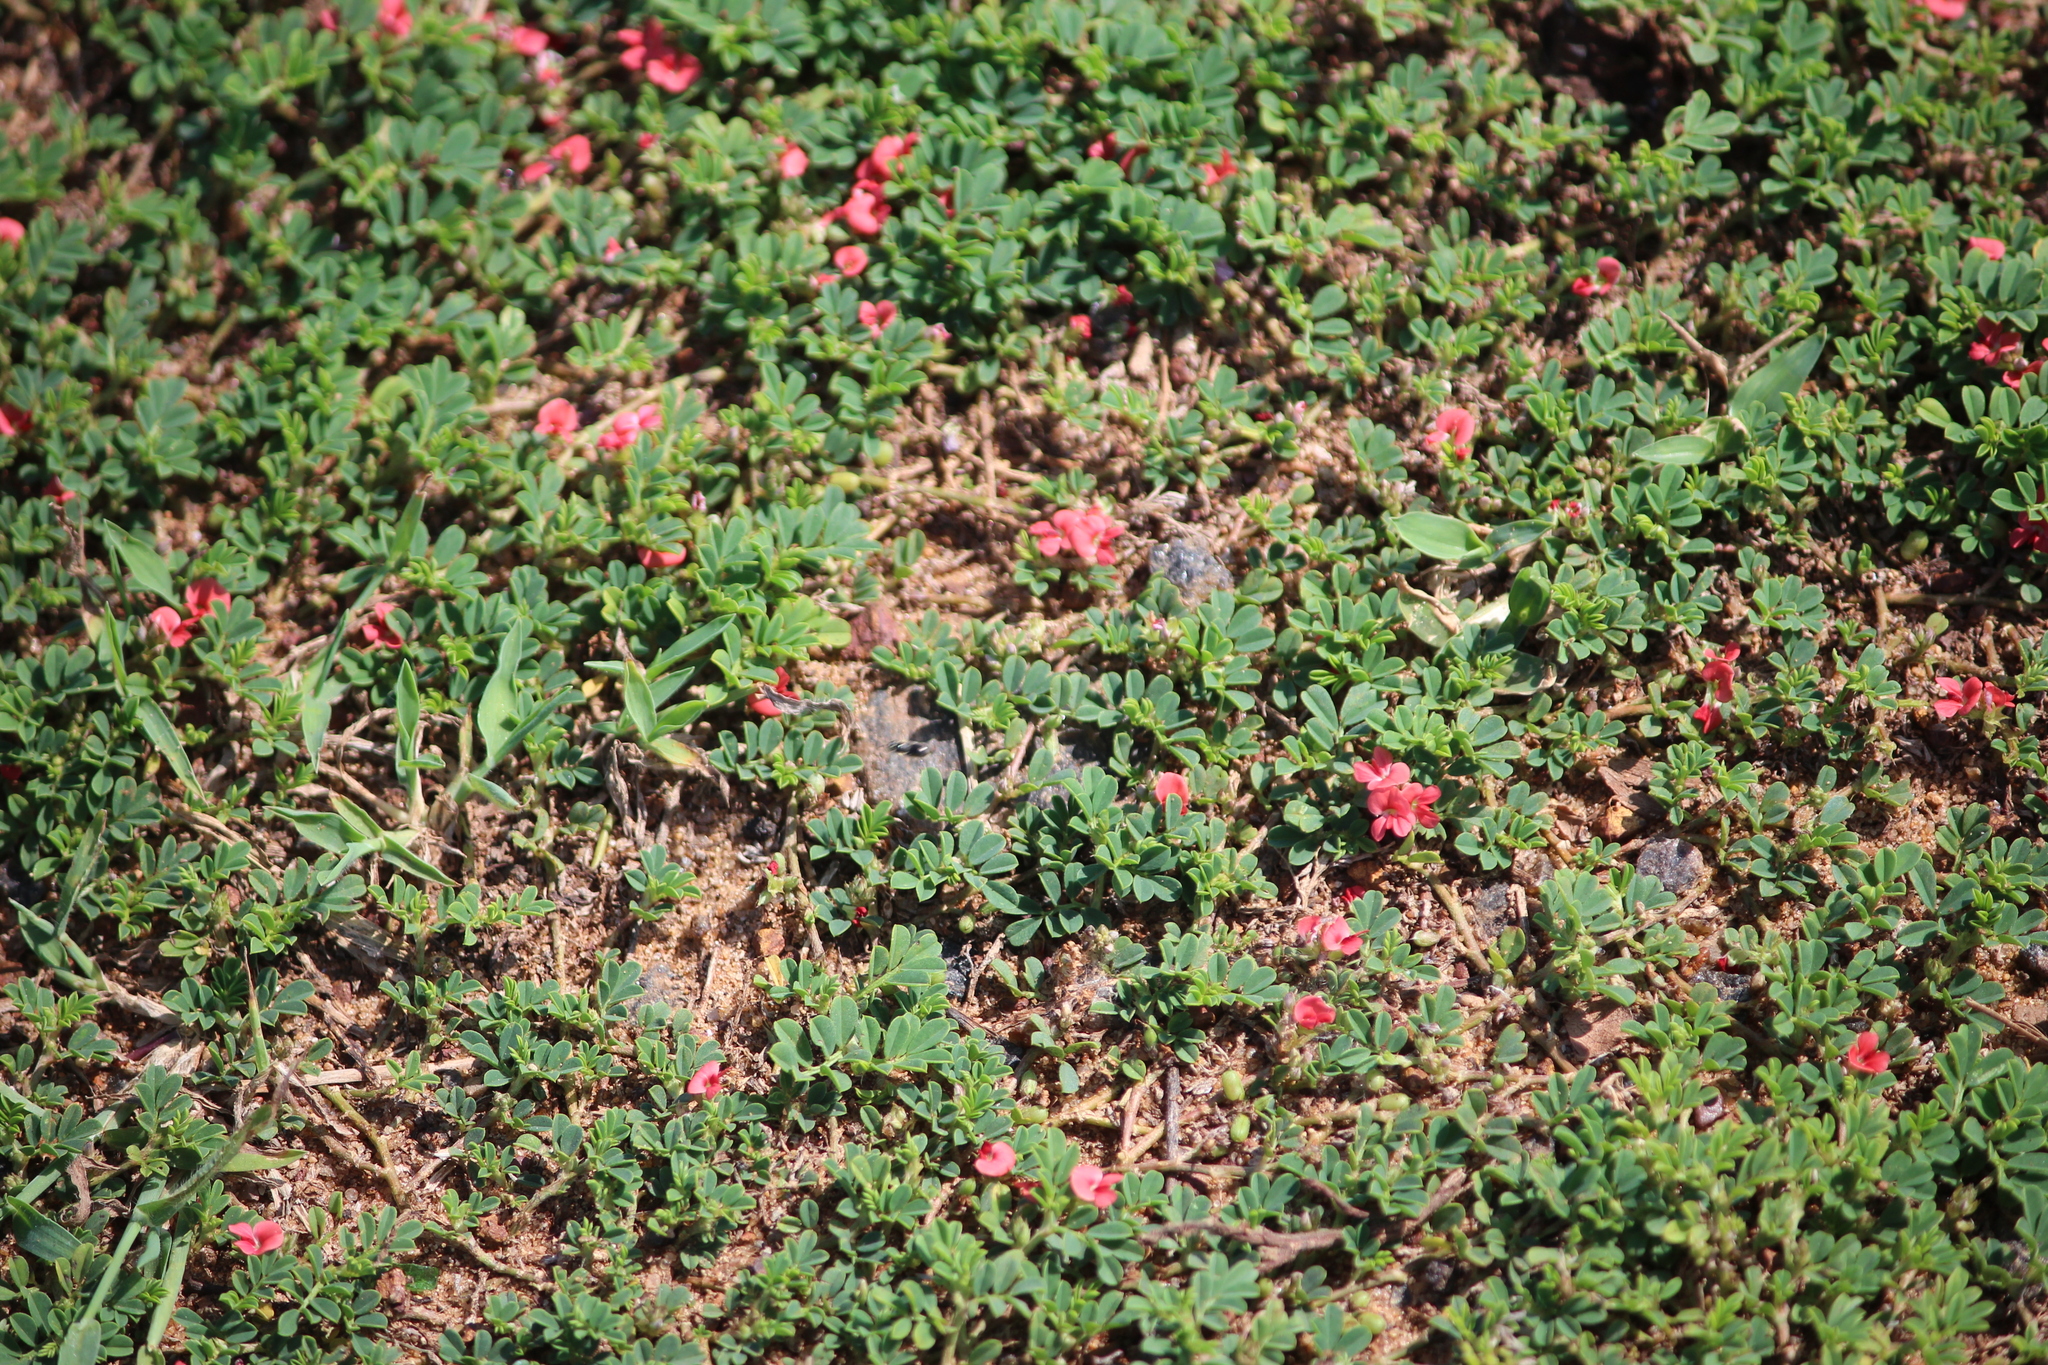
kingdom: Plantae
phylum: Tracheophyta
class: Magnoliopsida
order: Fabales
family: Fabaceae
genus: Indigofera
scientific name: Indigofera spicata
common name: Creeping indigo
